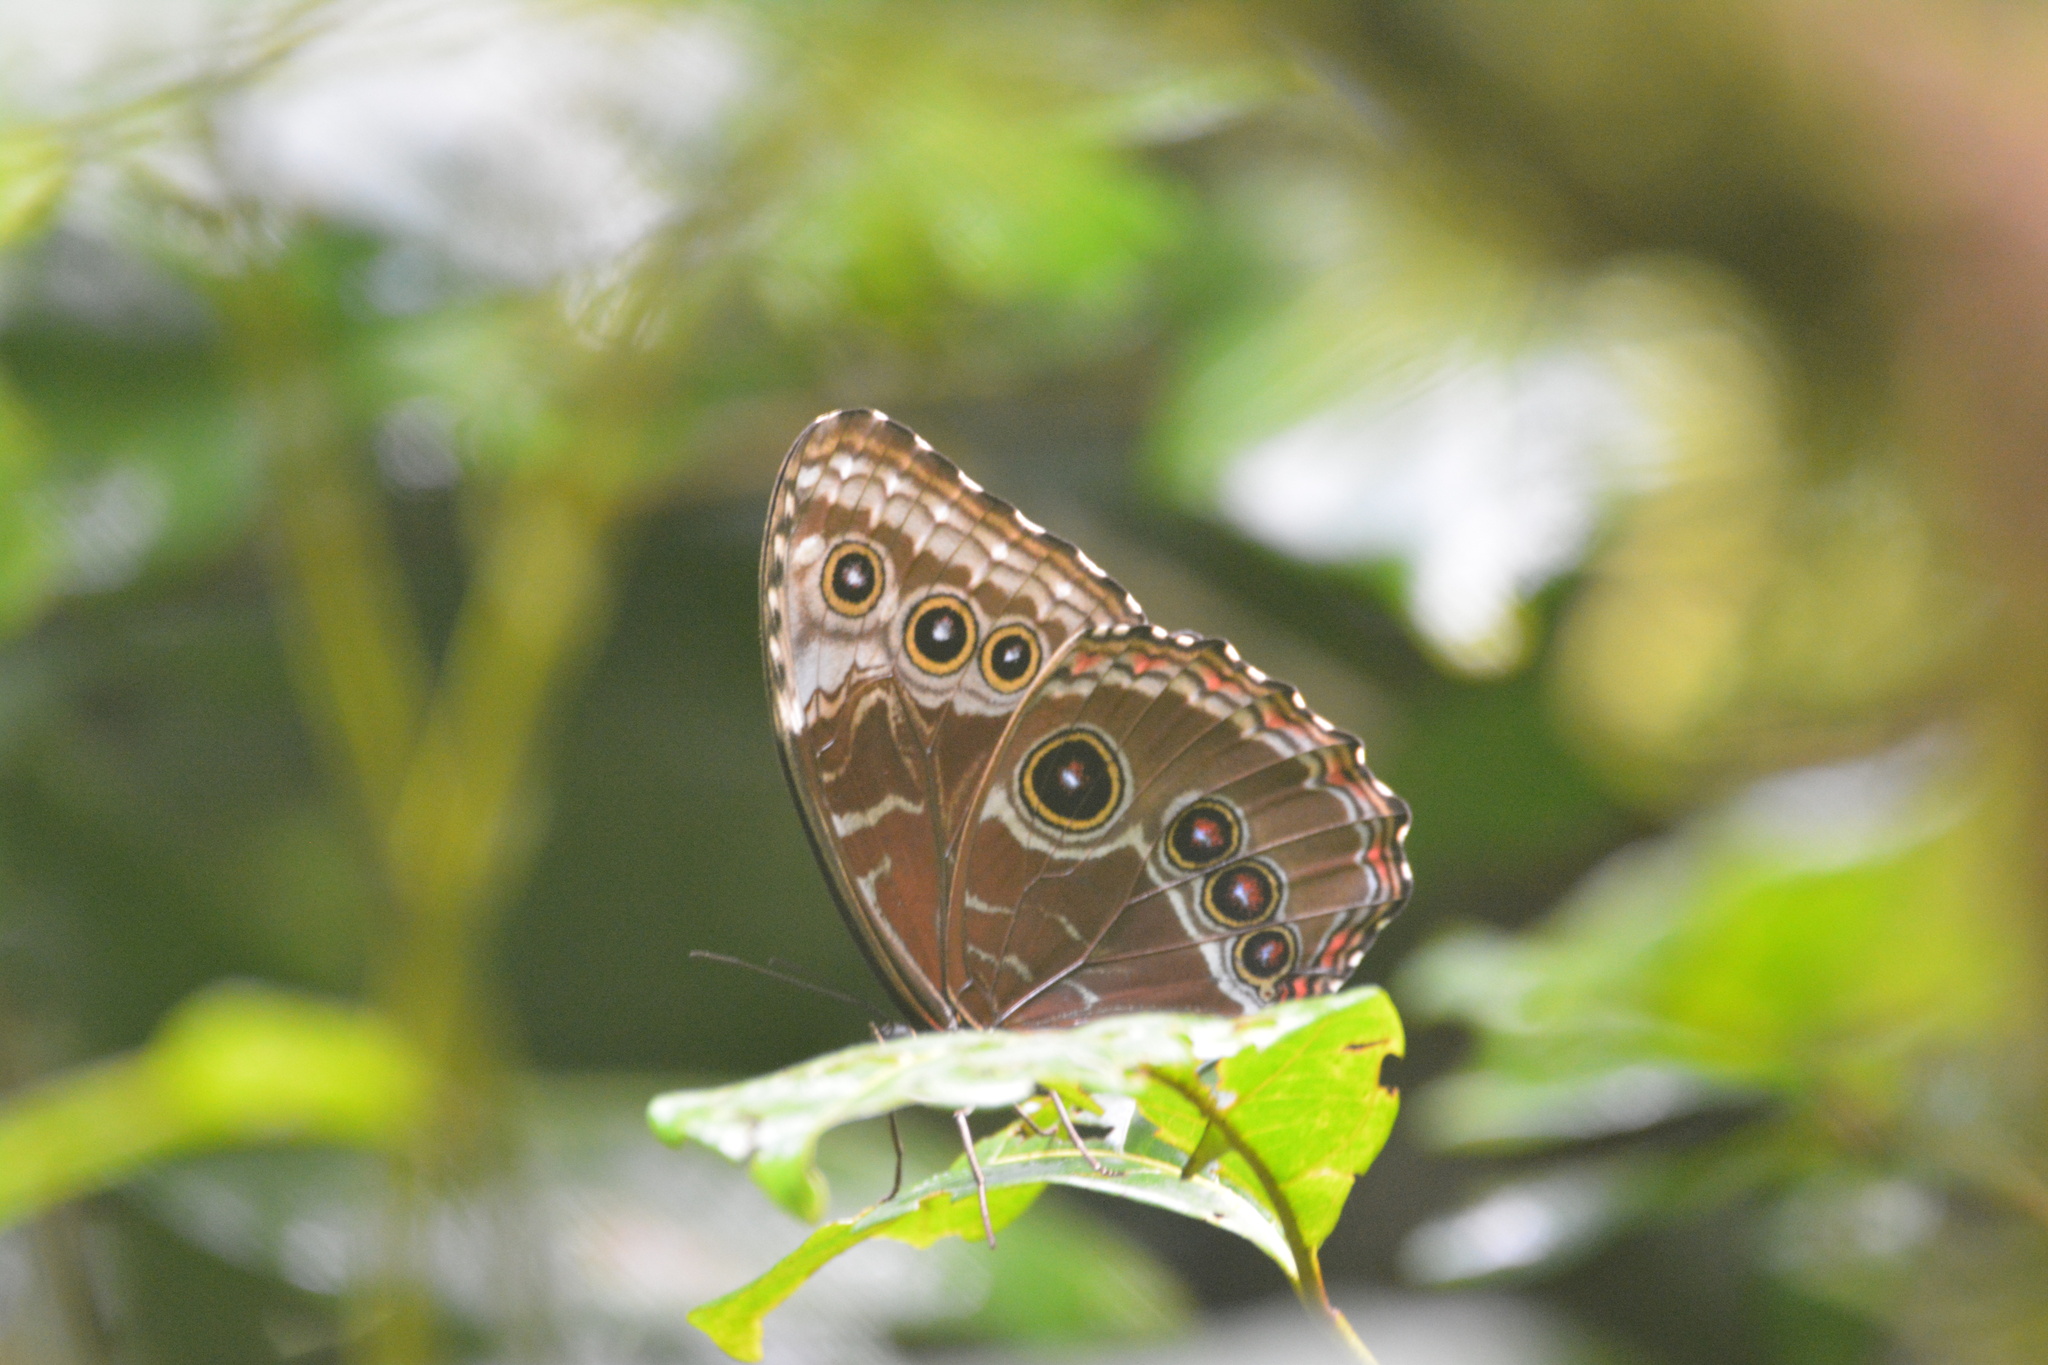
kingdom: Animalia
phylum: Arthropoda
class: Insecta
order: Lepidoptera
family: Nymphalidae
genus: Morpho
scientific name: Morpho helenor
